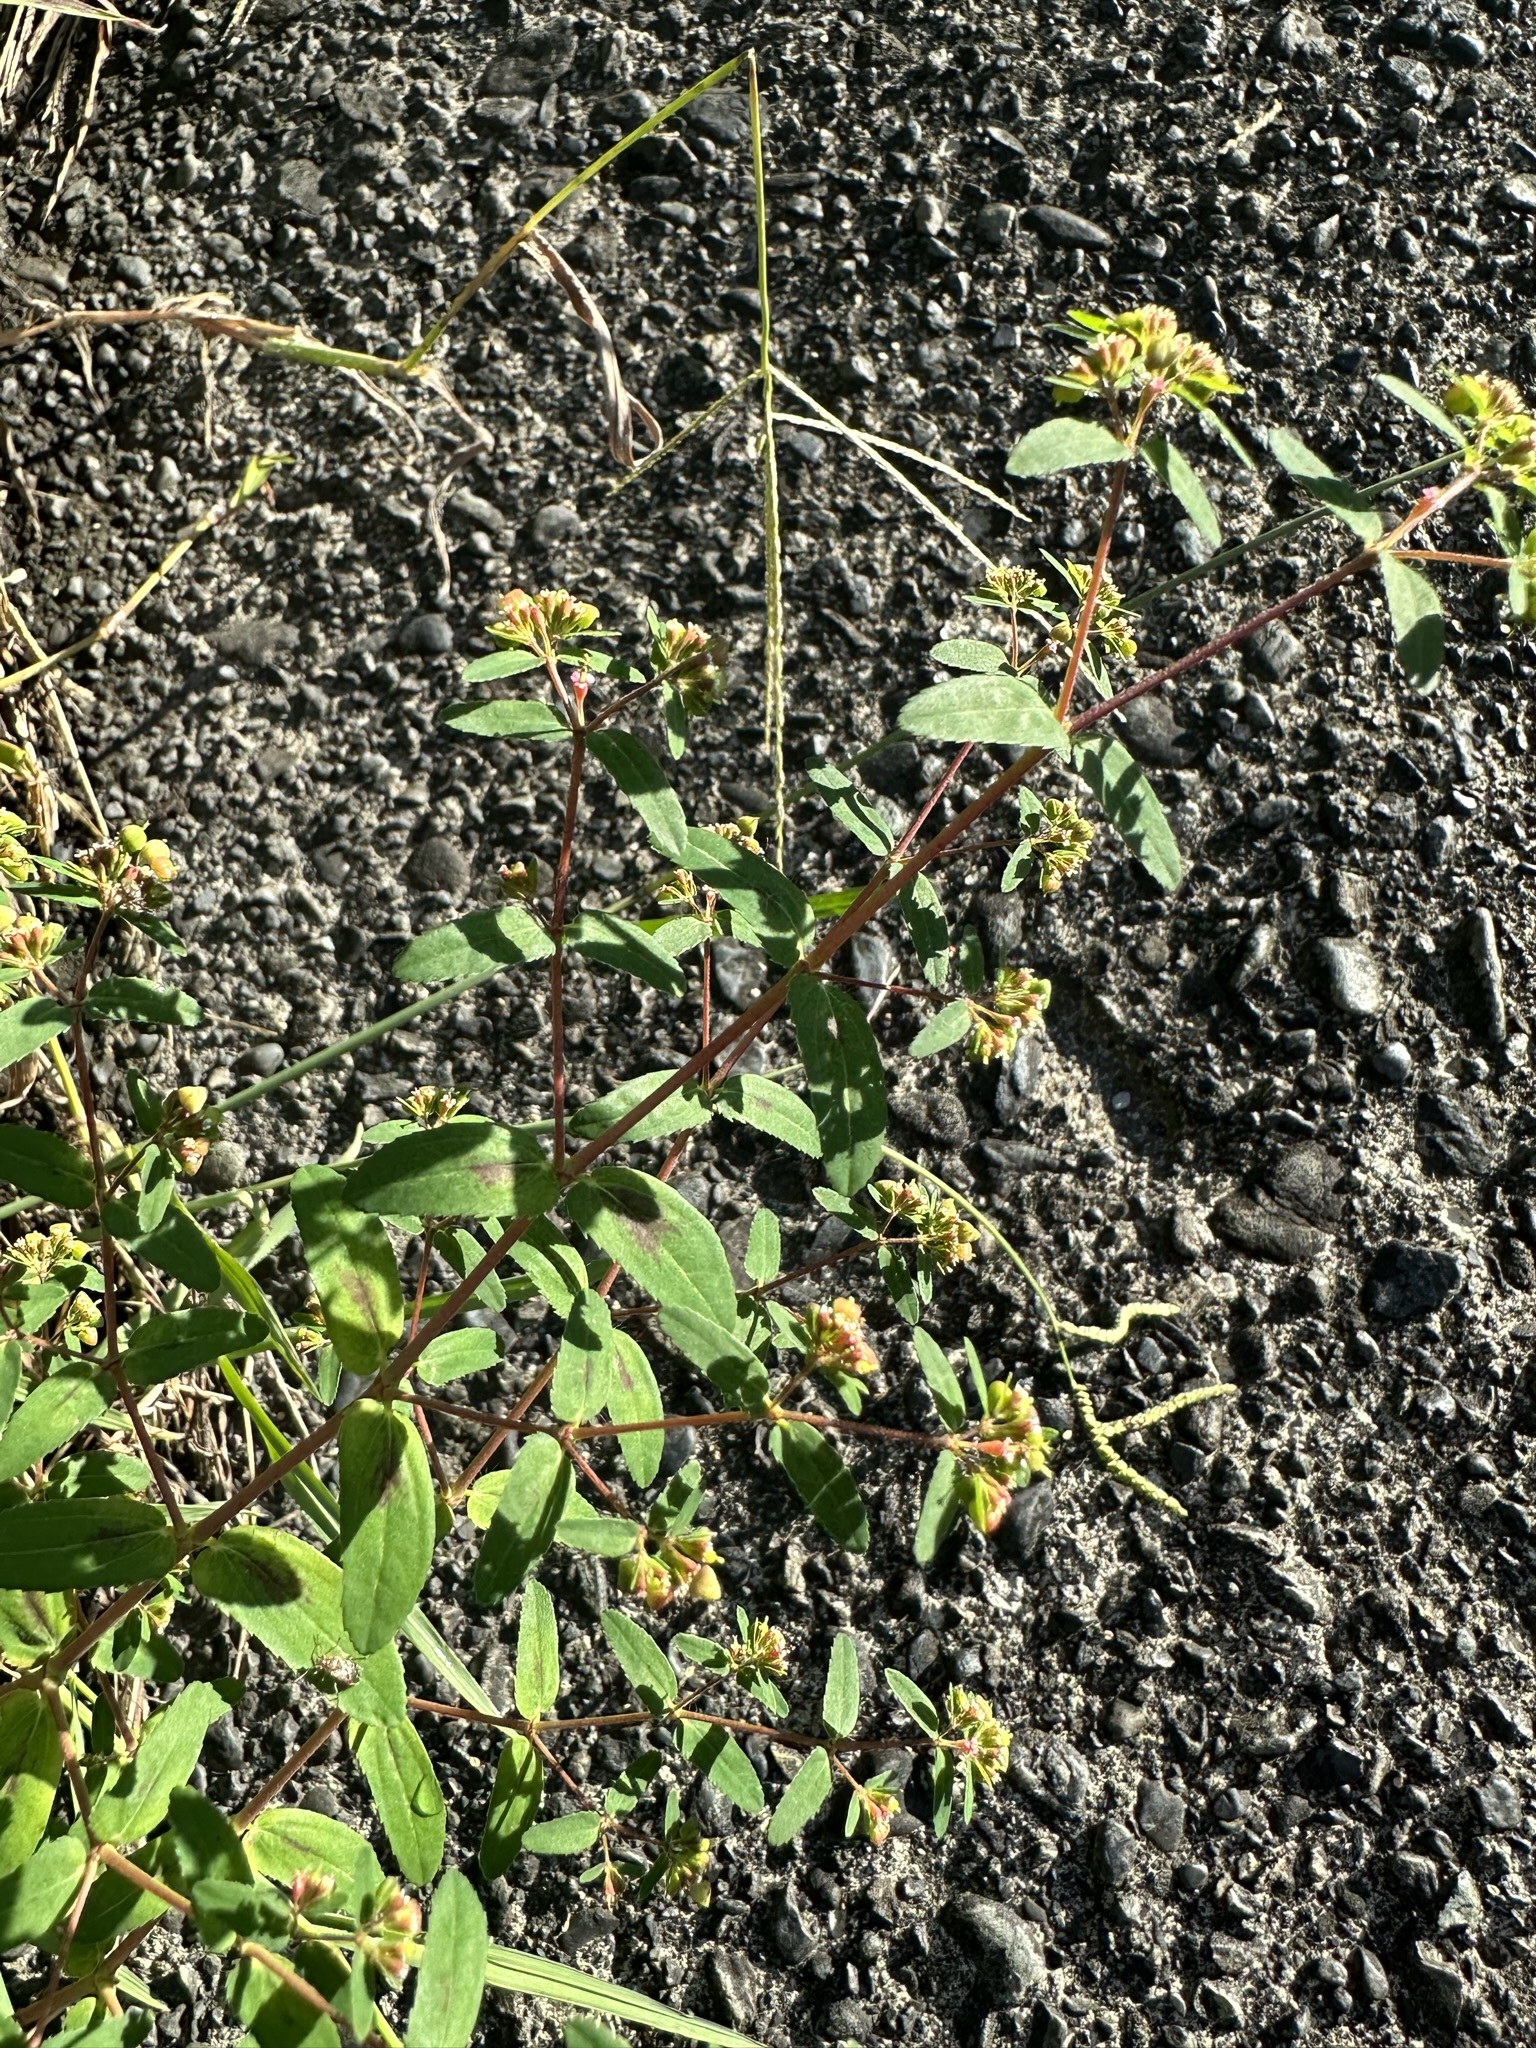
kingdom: Plantae
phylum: Tracheophyta
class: Magnoliopsida
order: Malpighiales
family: Euphorbiaceae
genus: Euphorbia
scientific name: Euphorbia nutans
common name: Eyebane
